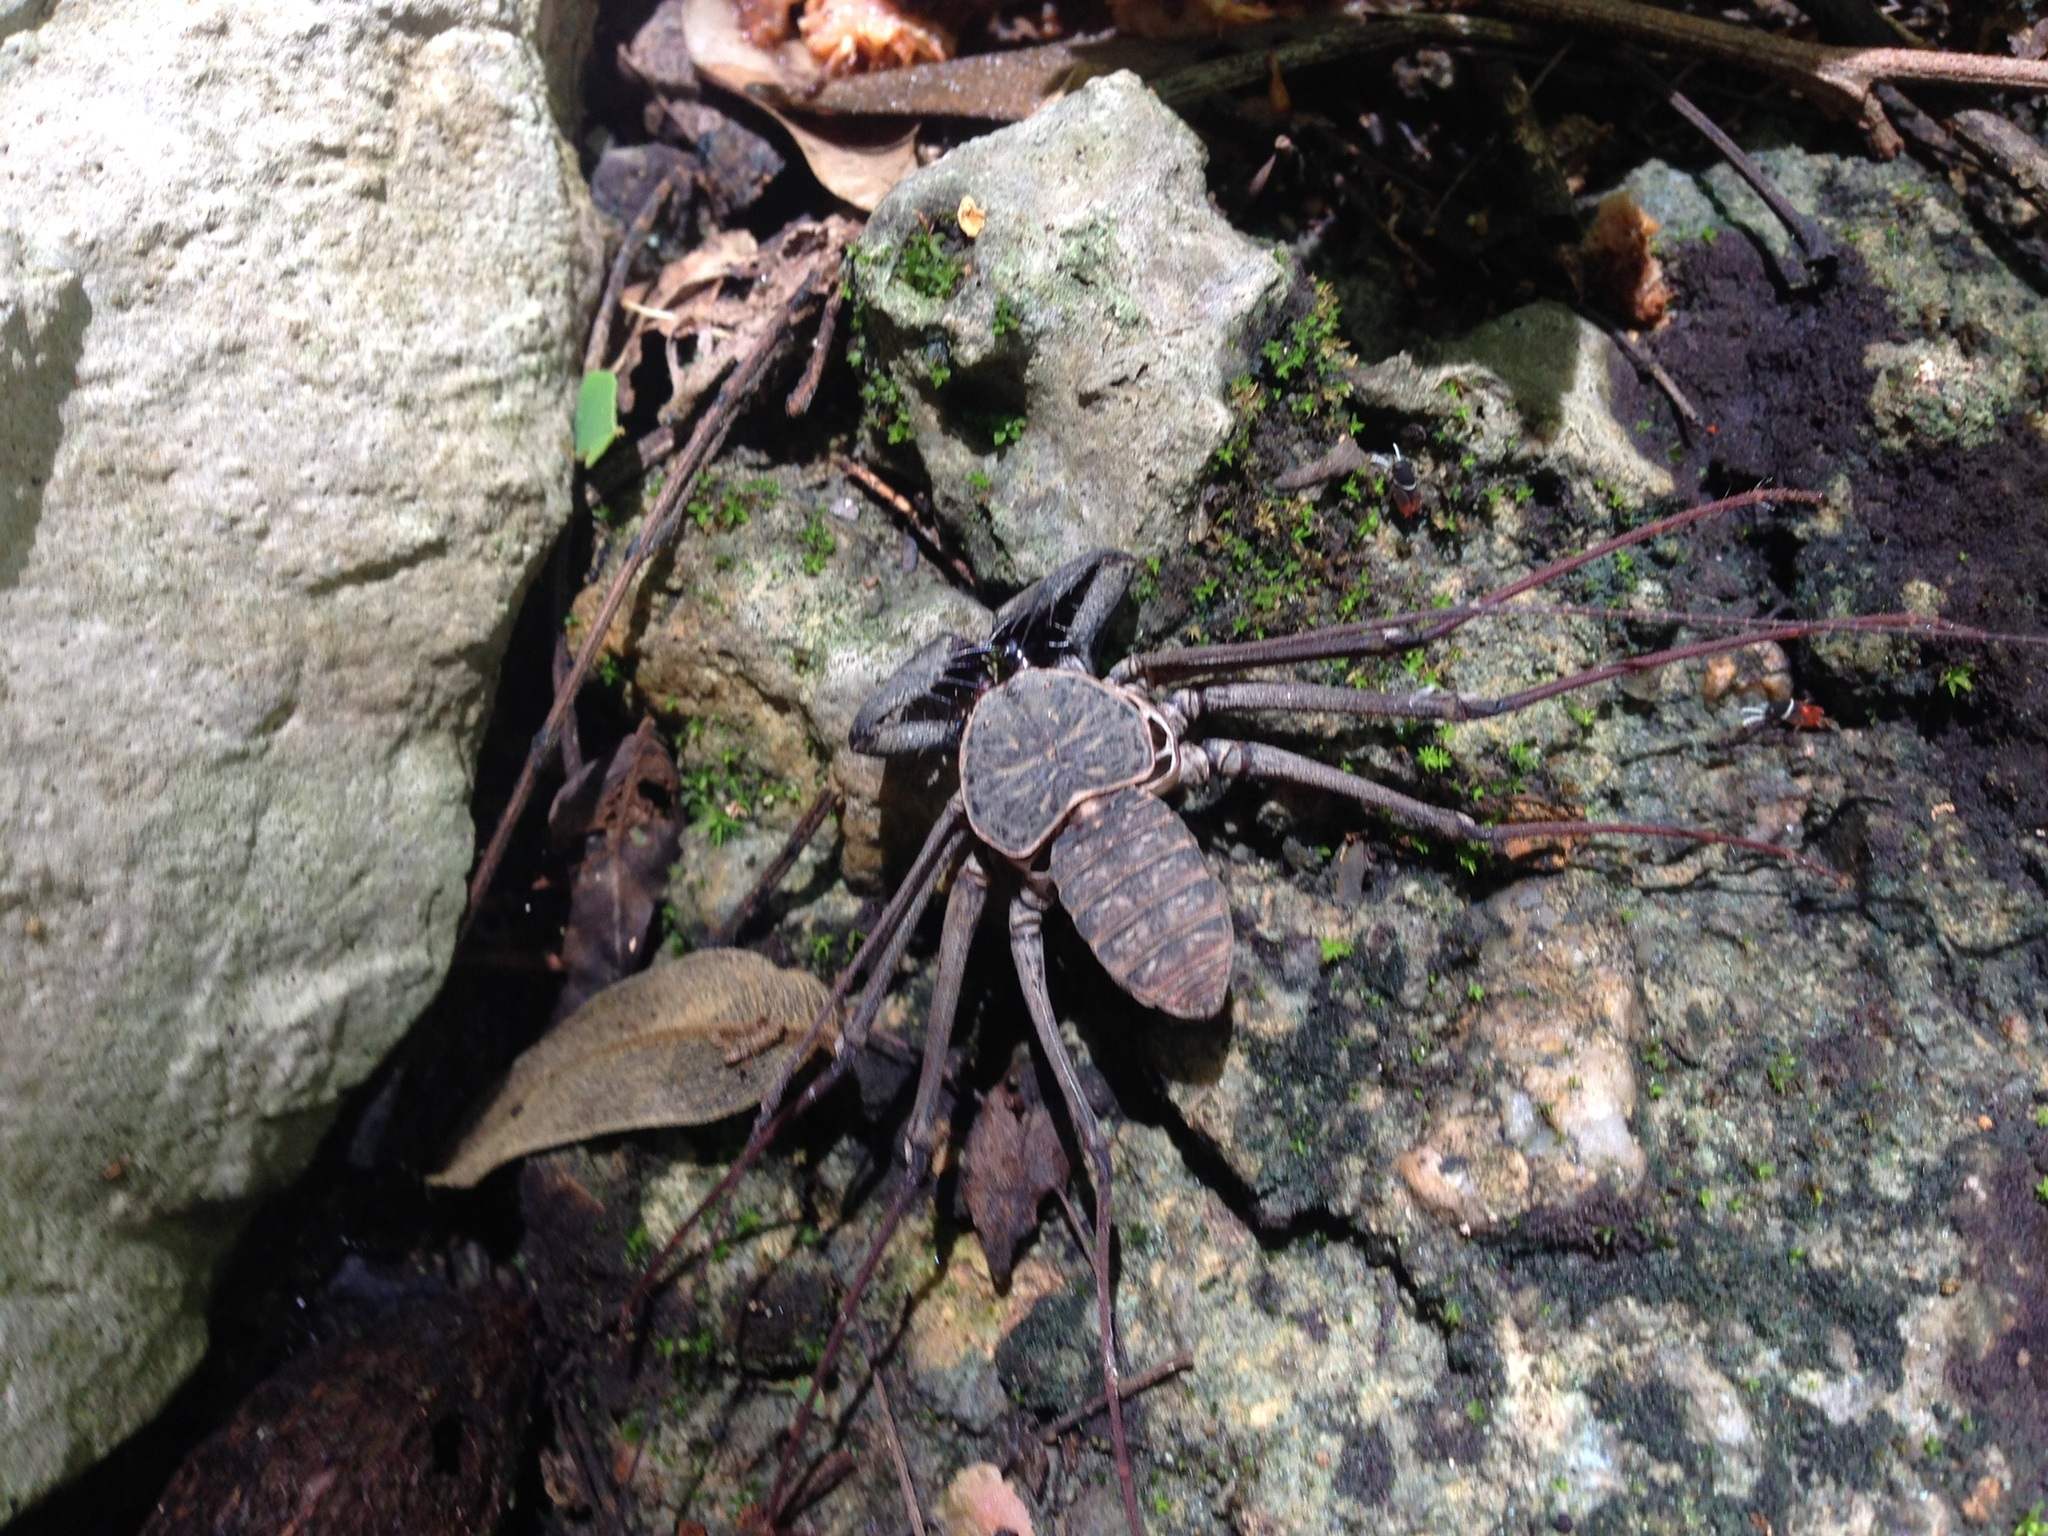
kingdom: Animalia
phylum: Arthropoda
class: Arachnida
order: Amblypygi
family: Phrynidae
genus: Phrynus
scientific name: Phrynus whitei
